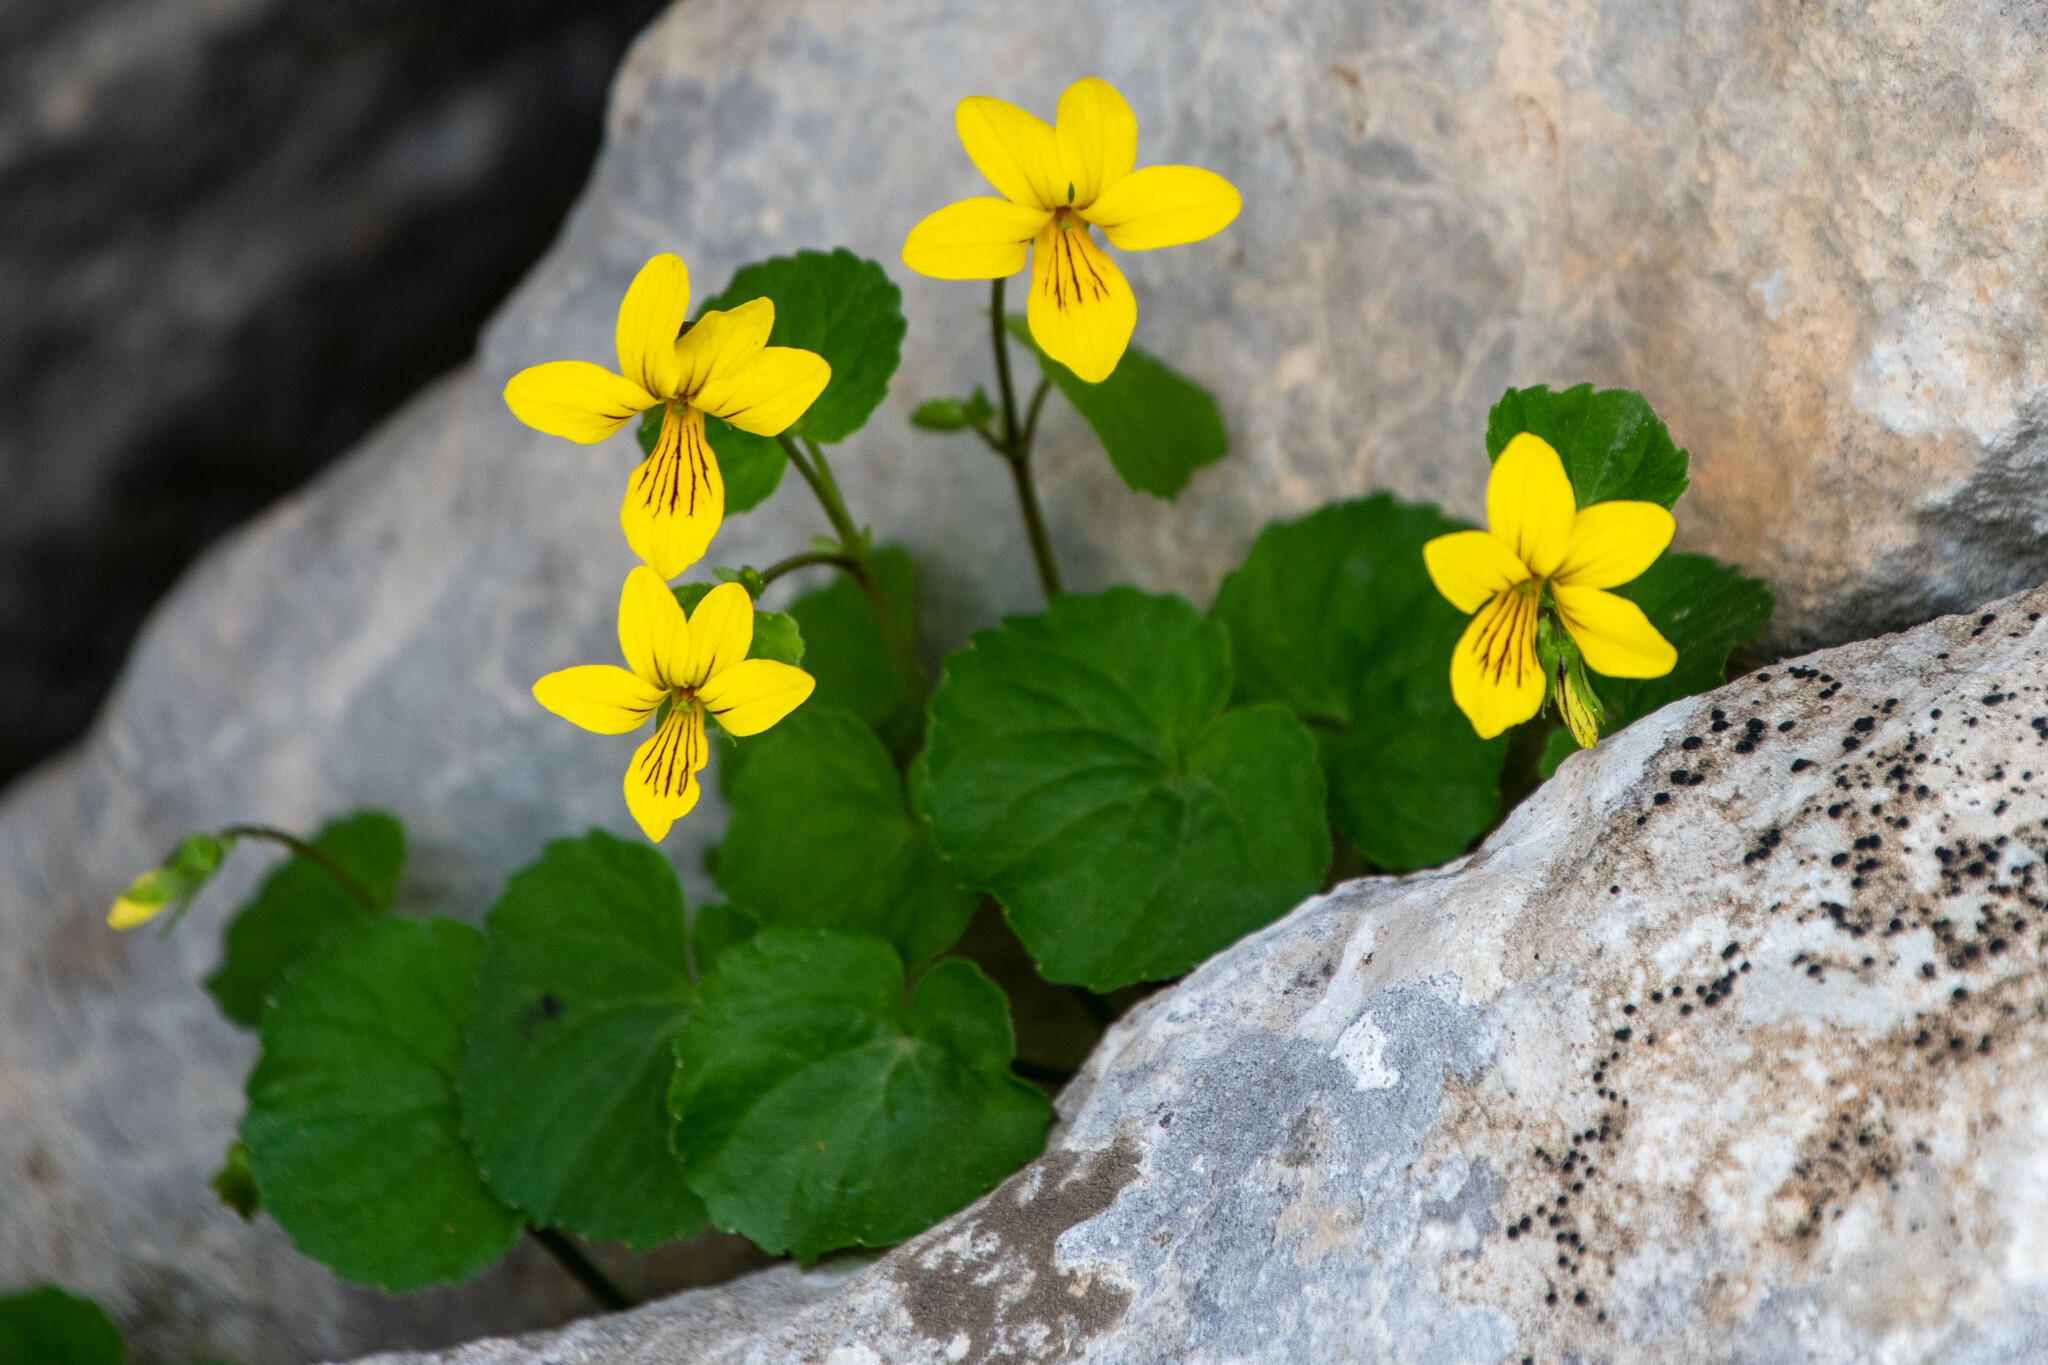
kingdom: Plantae
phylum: Tracheophyta
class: Magnoliopsida
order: Malpighiales
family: Violaceae
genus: Viola
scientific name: Viola biflora
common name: Alpine yellow violet
